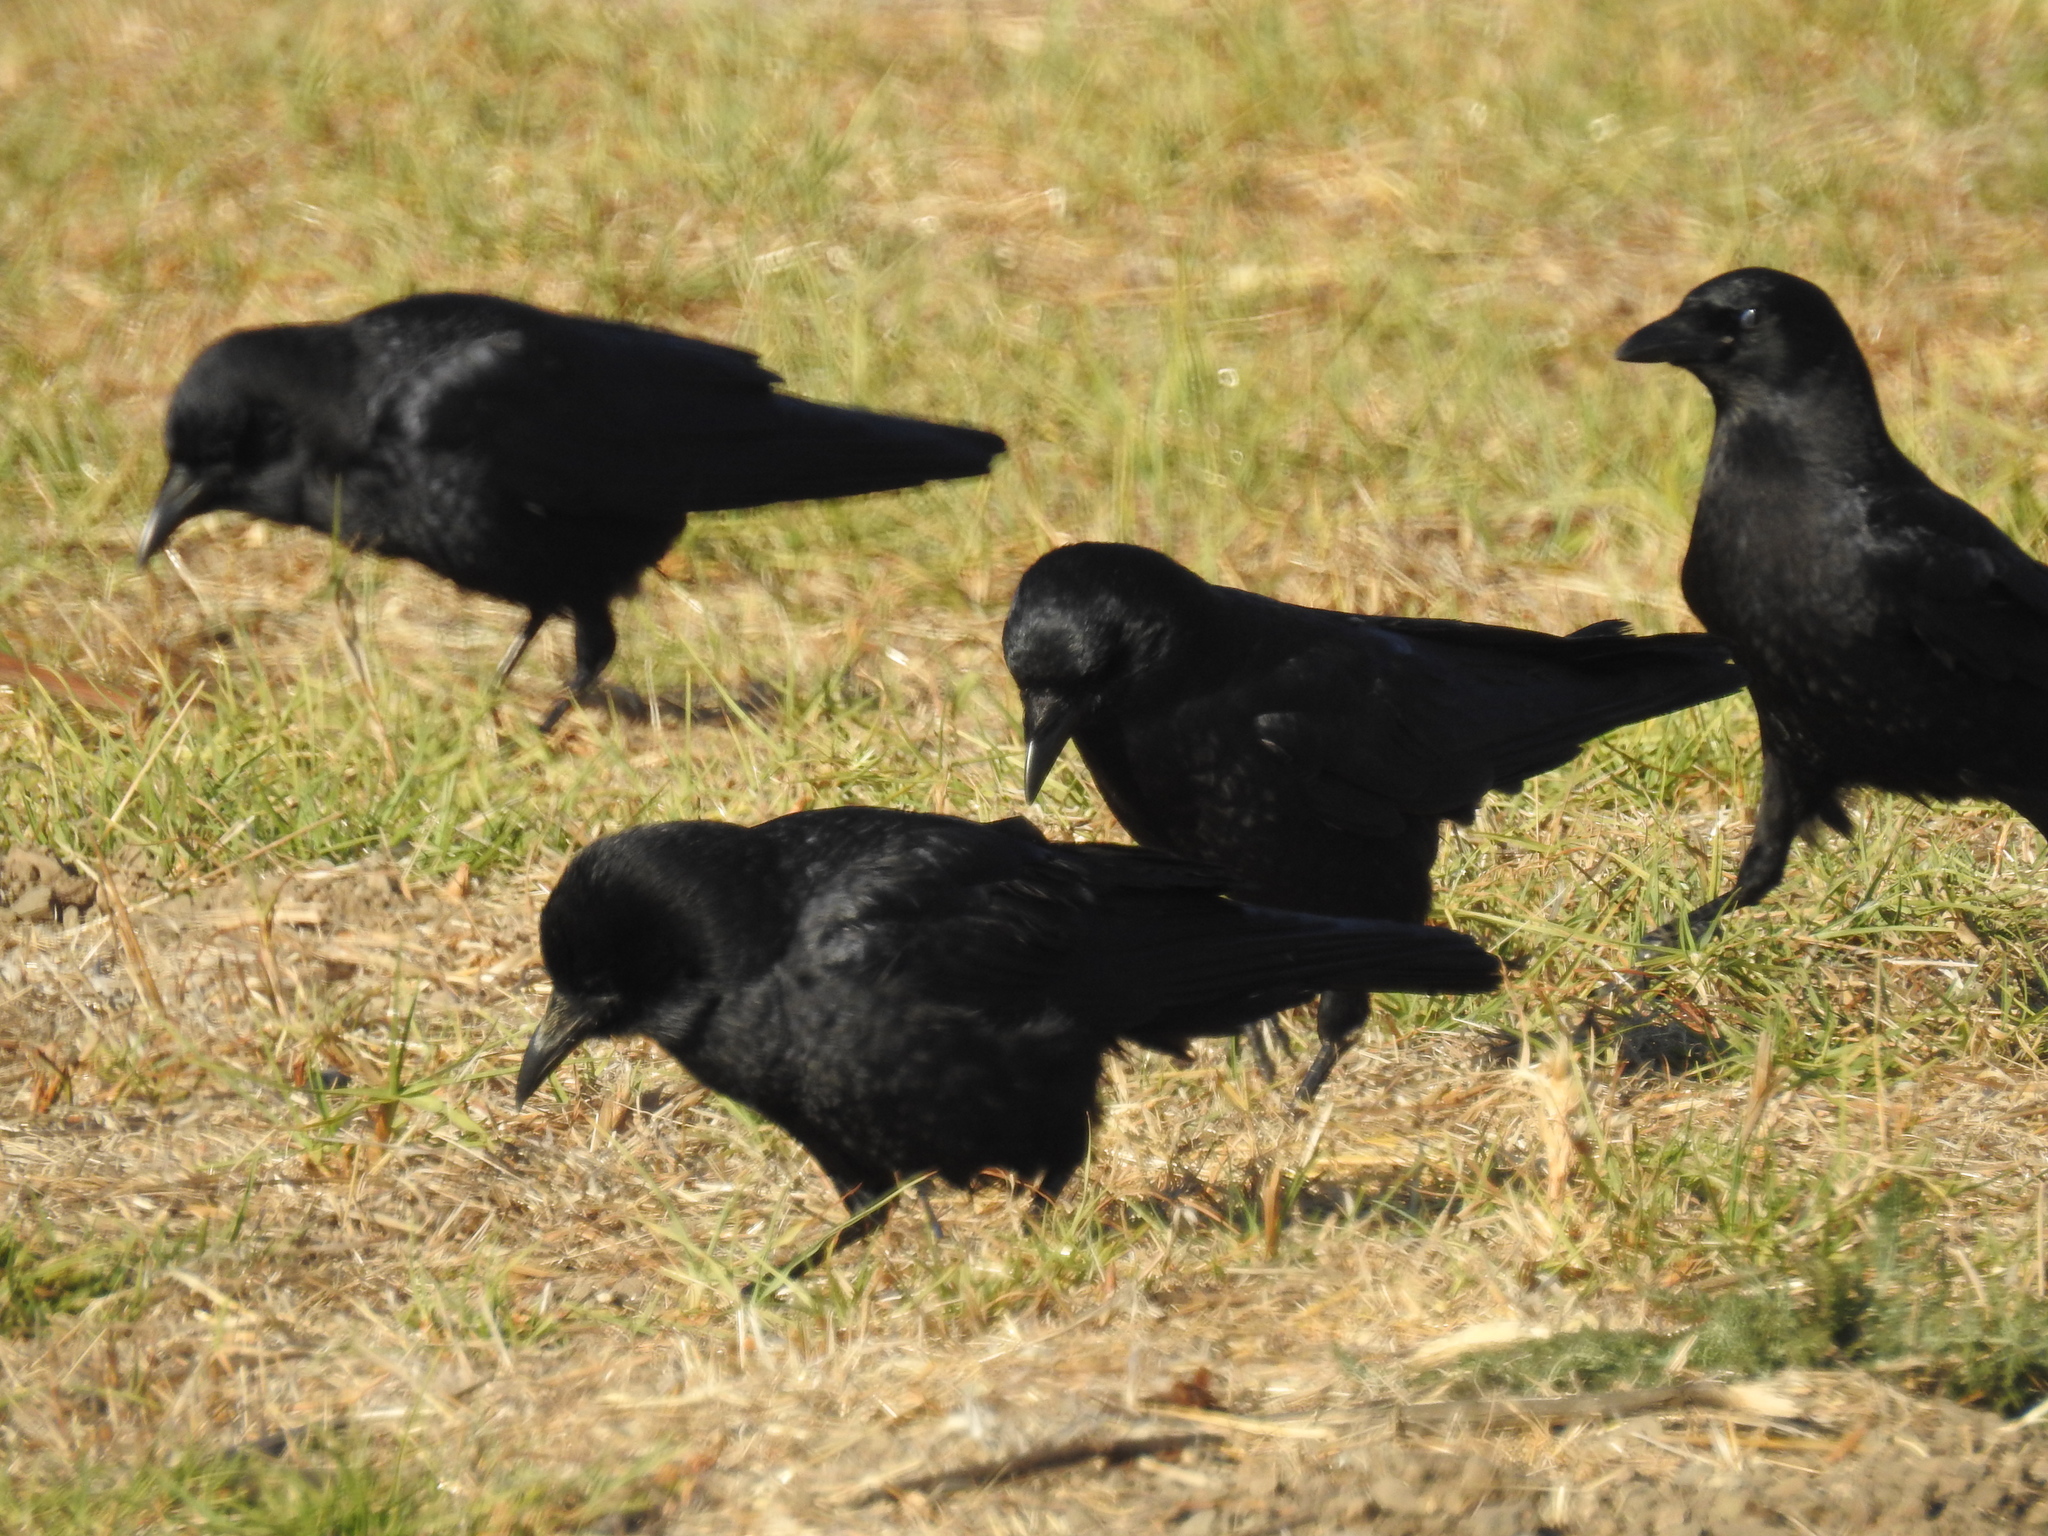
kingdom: Animalia
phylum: Chordata
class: Aves
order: Passeriformes
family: Corvidae
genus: Corvus
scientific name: Corvus brachyrhynchos
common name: American crow
